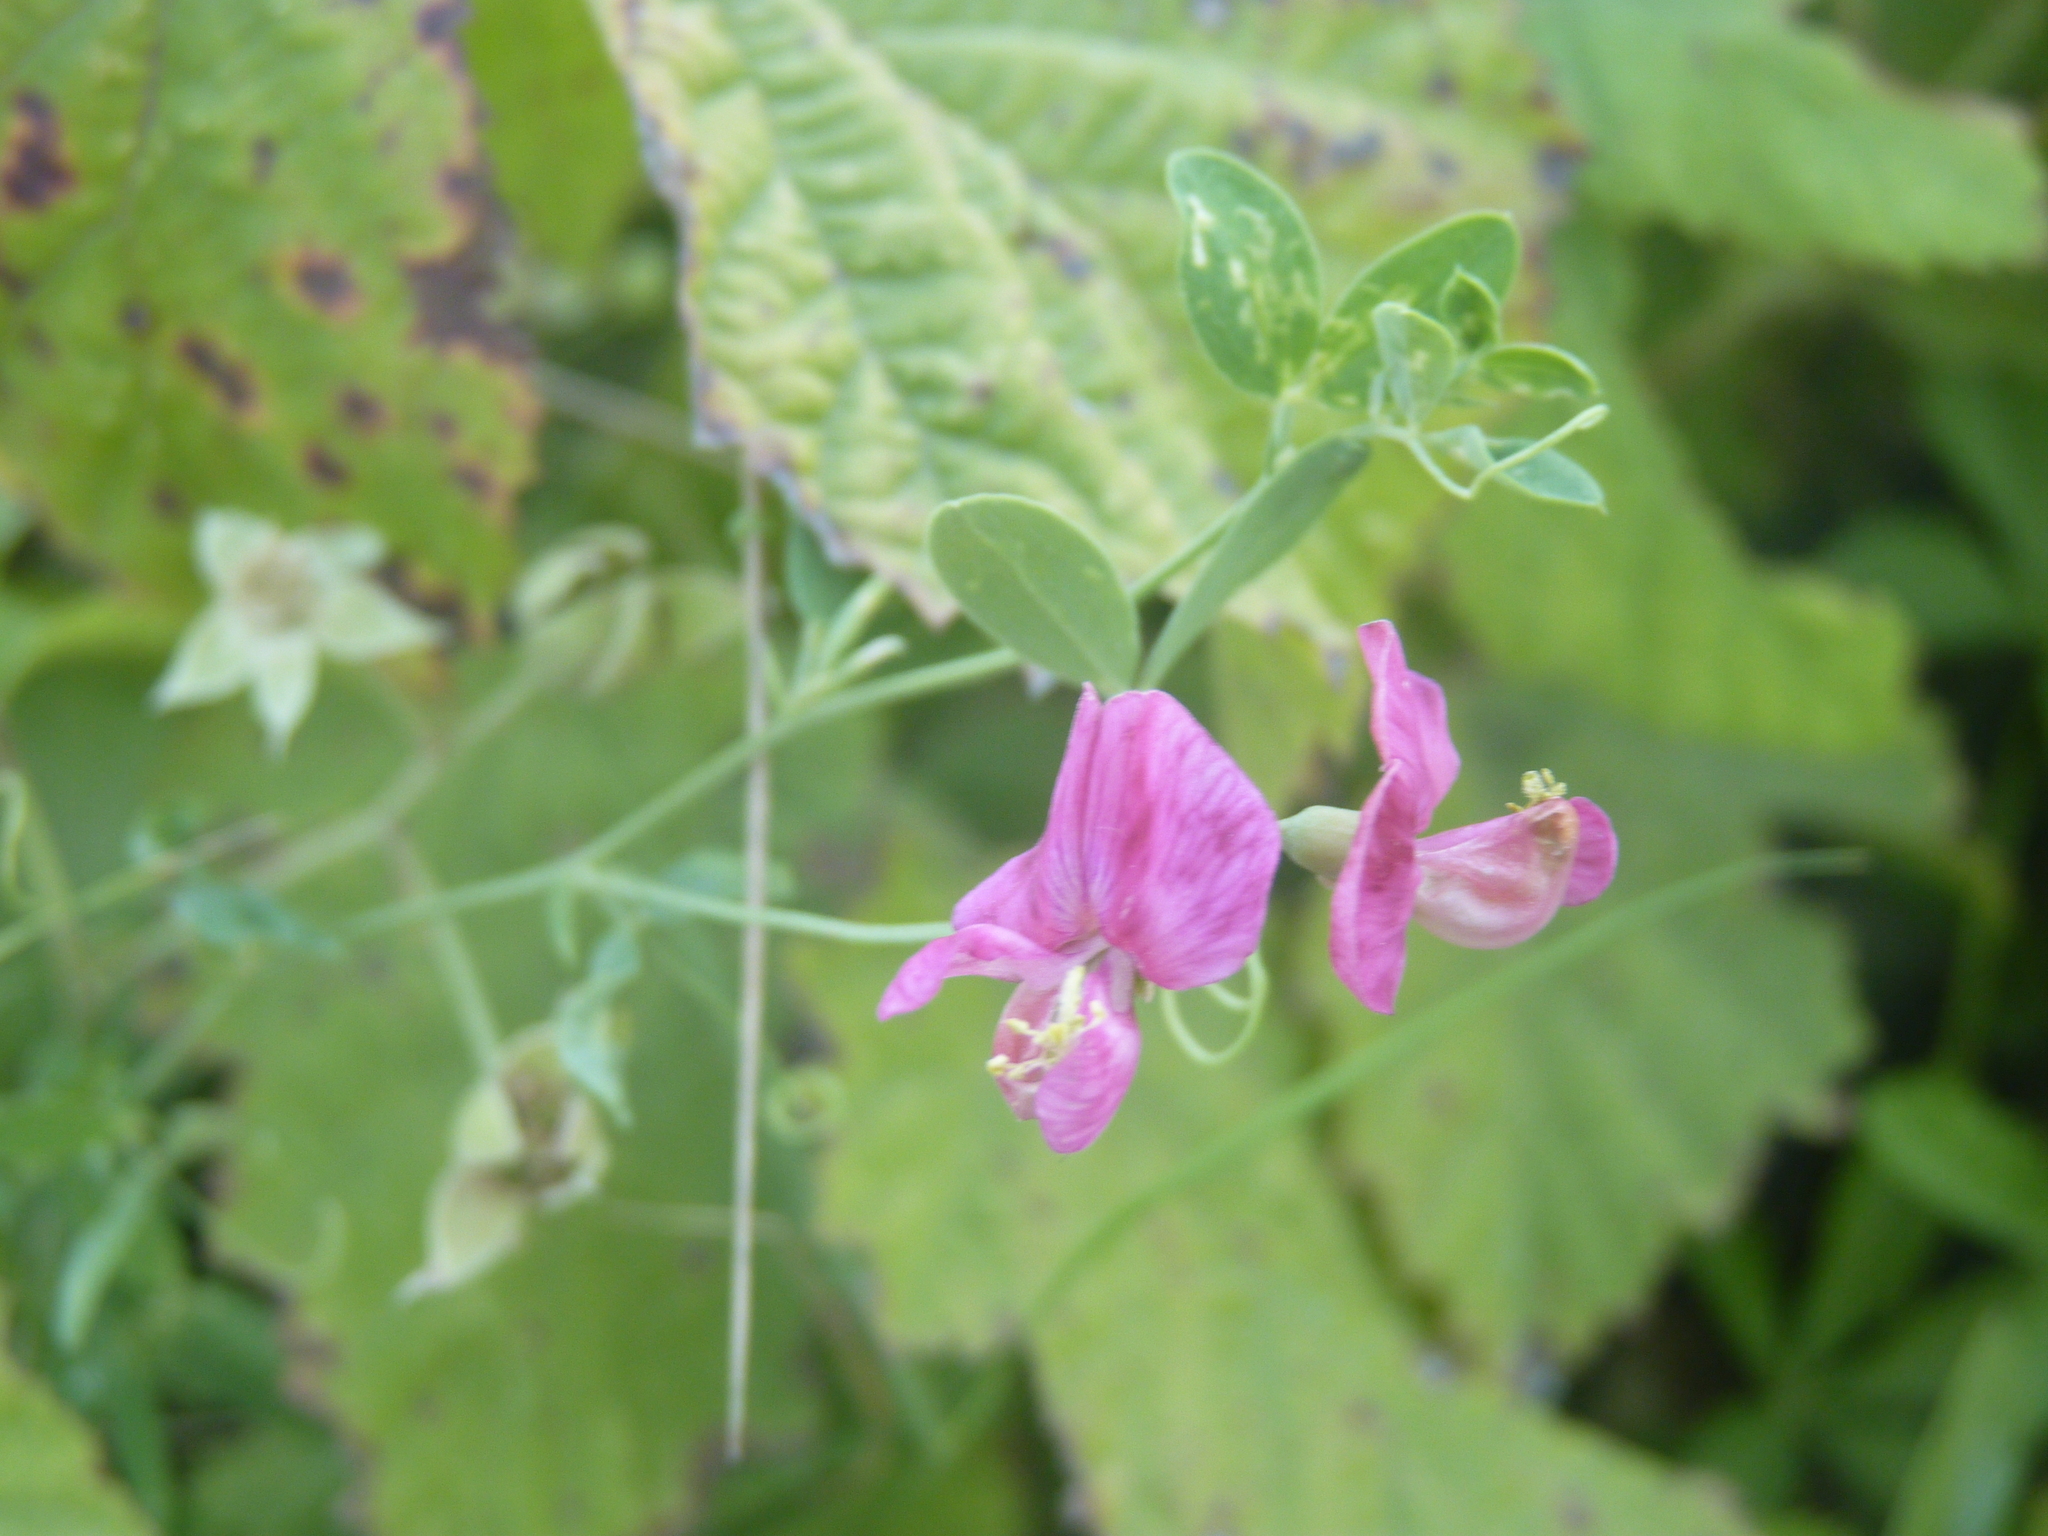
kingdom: Plantae
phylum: Tracheophyta
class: Magnoliopsida
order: Fabales
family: Fabaceae
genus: Lathyrus
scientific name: Lathyrus tuberosus
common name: Tuberous pea
